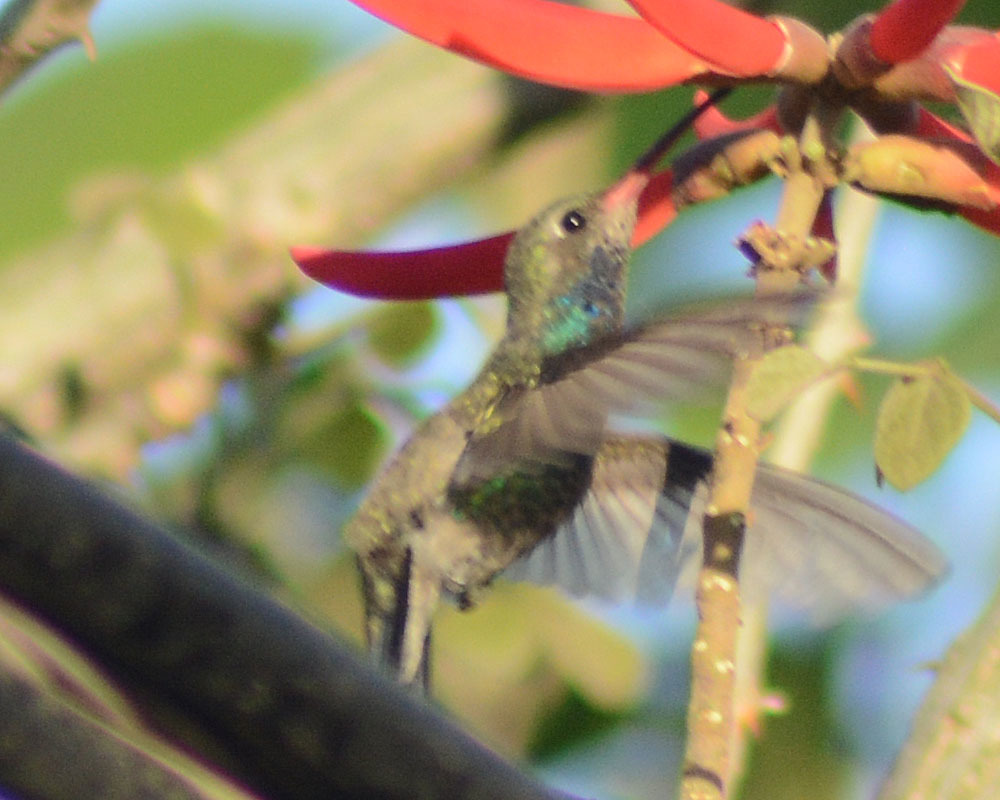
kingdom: Animalia
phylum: Chordata
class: Aves
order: Apodiformes
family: Trochilidae
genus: Cynanthus
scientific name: Cynanthus latirostris
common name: Broad-billed hummingbird
